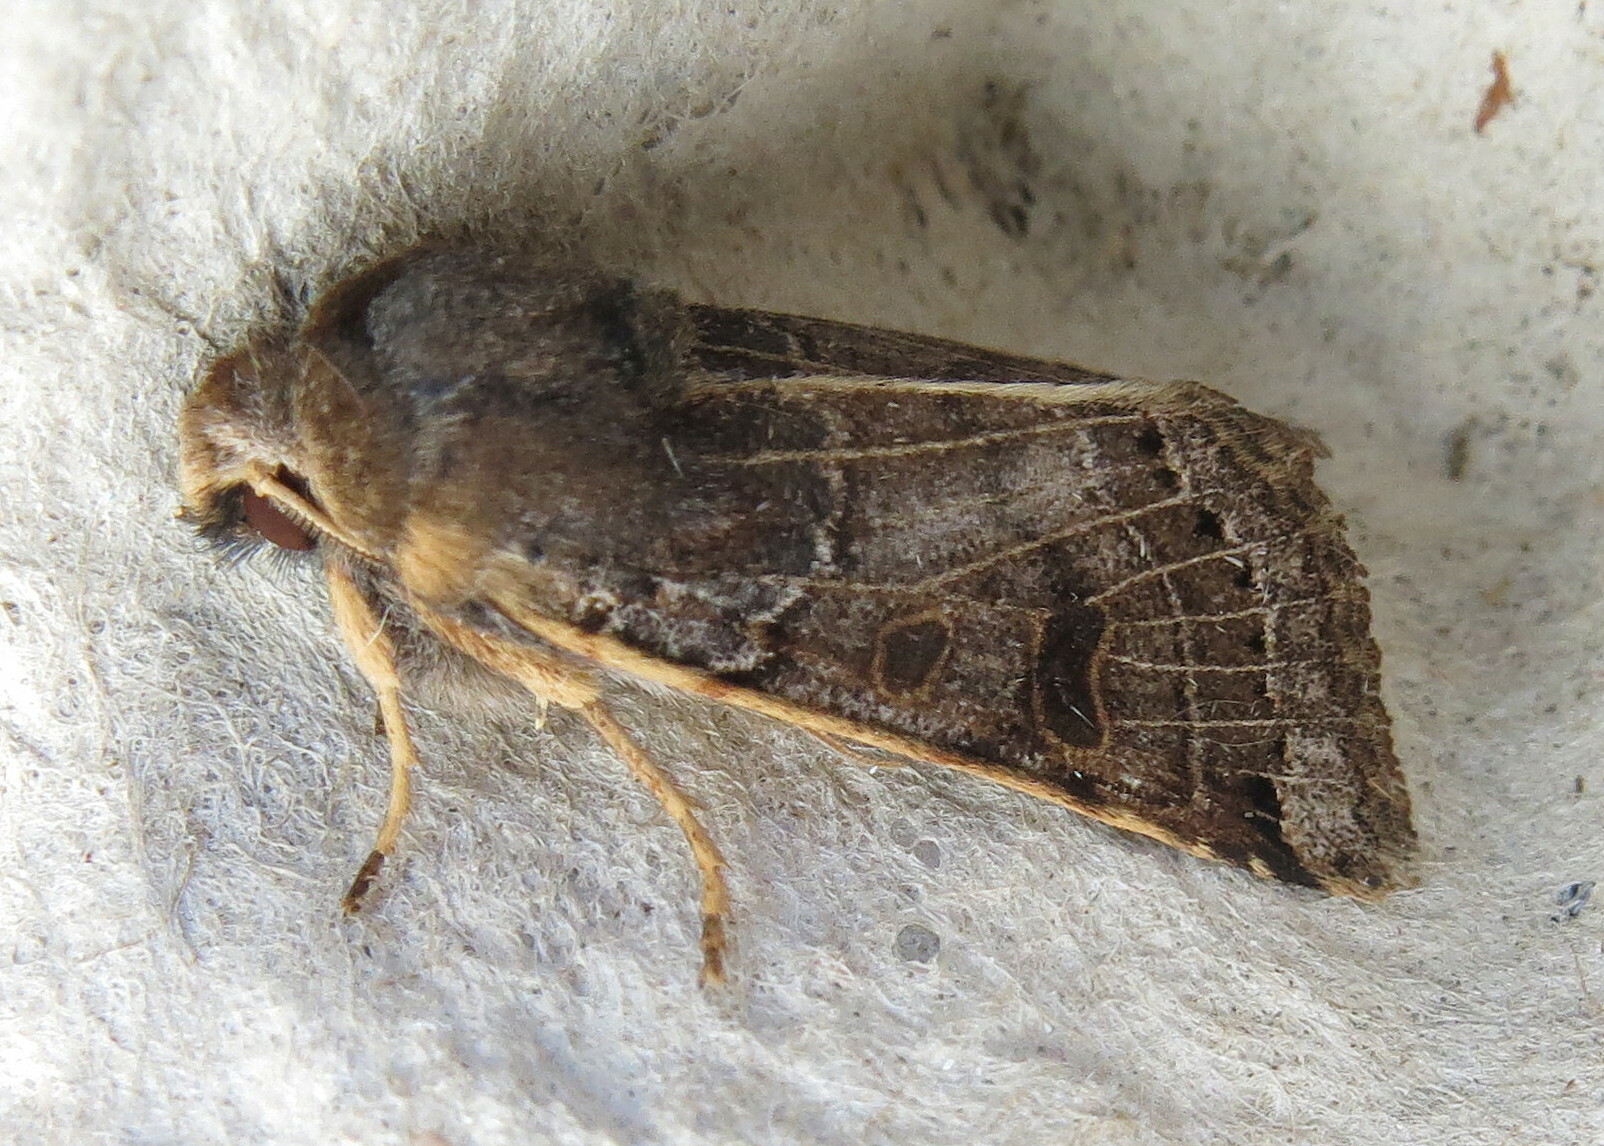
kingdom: Animalia
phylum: Arthropoda
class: Insecta
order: Lepidoptera
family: Noctuidae
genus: Agrochola
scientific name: Agrochola lunosa
